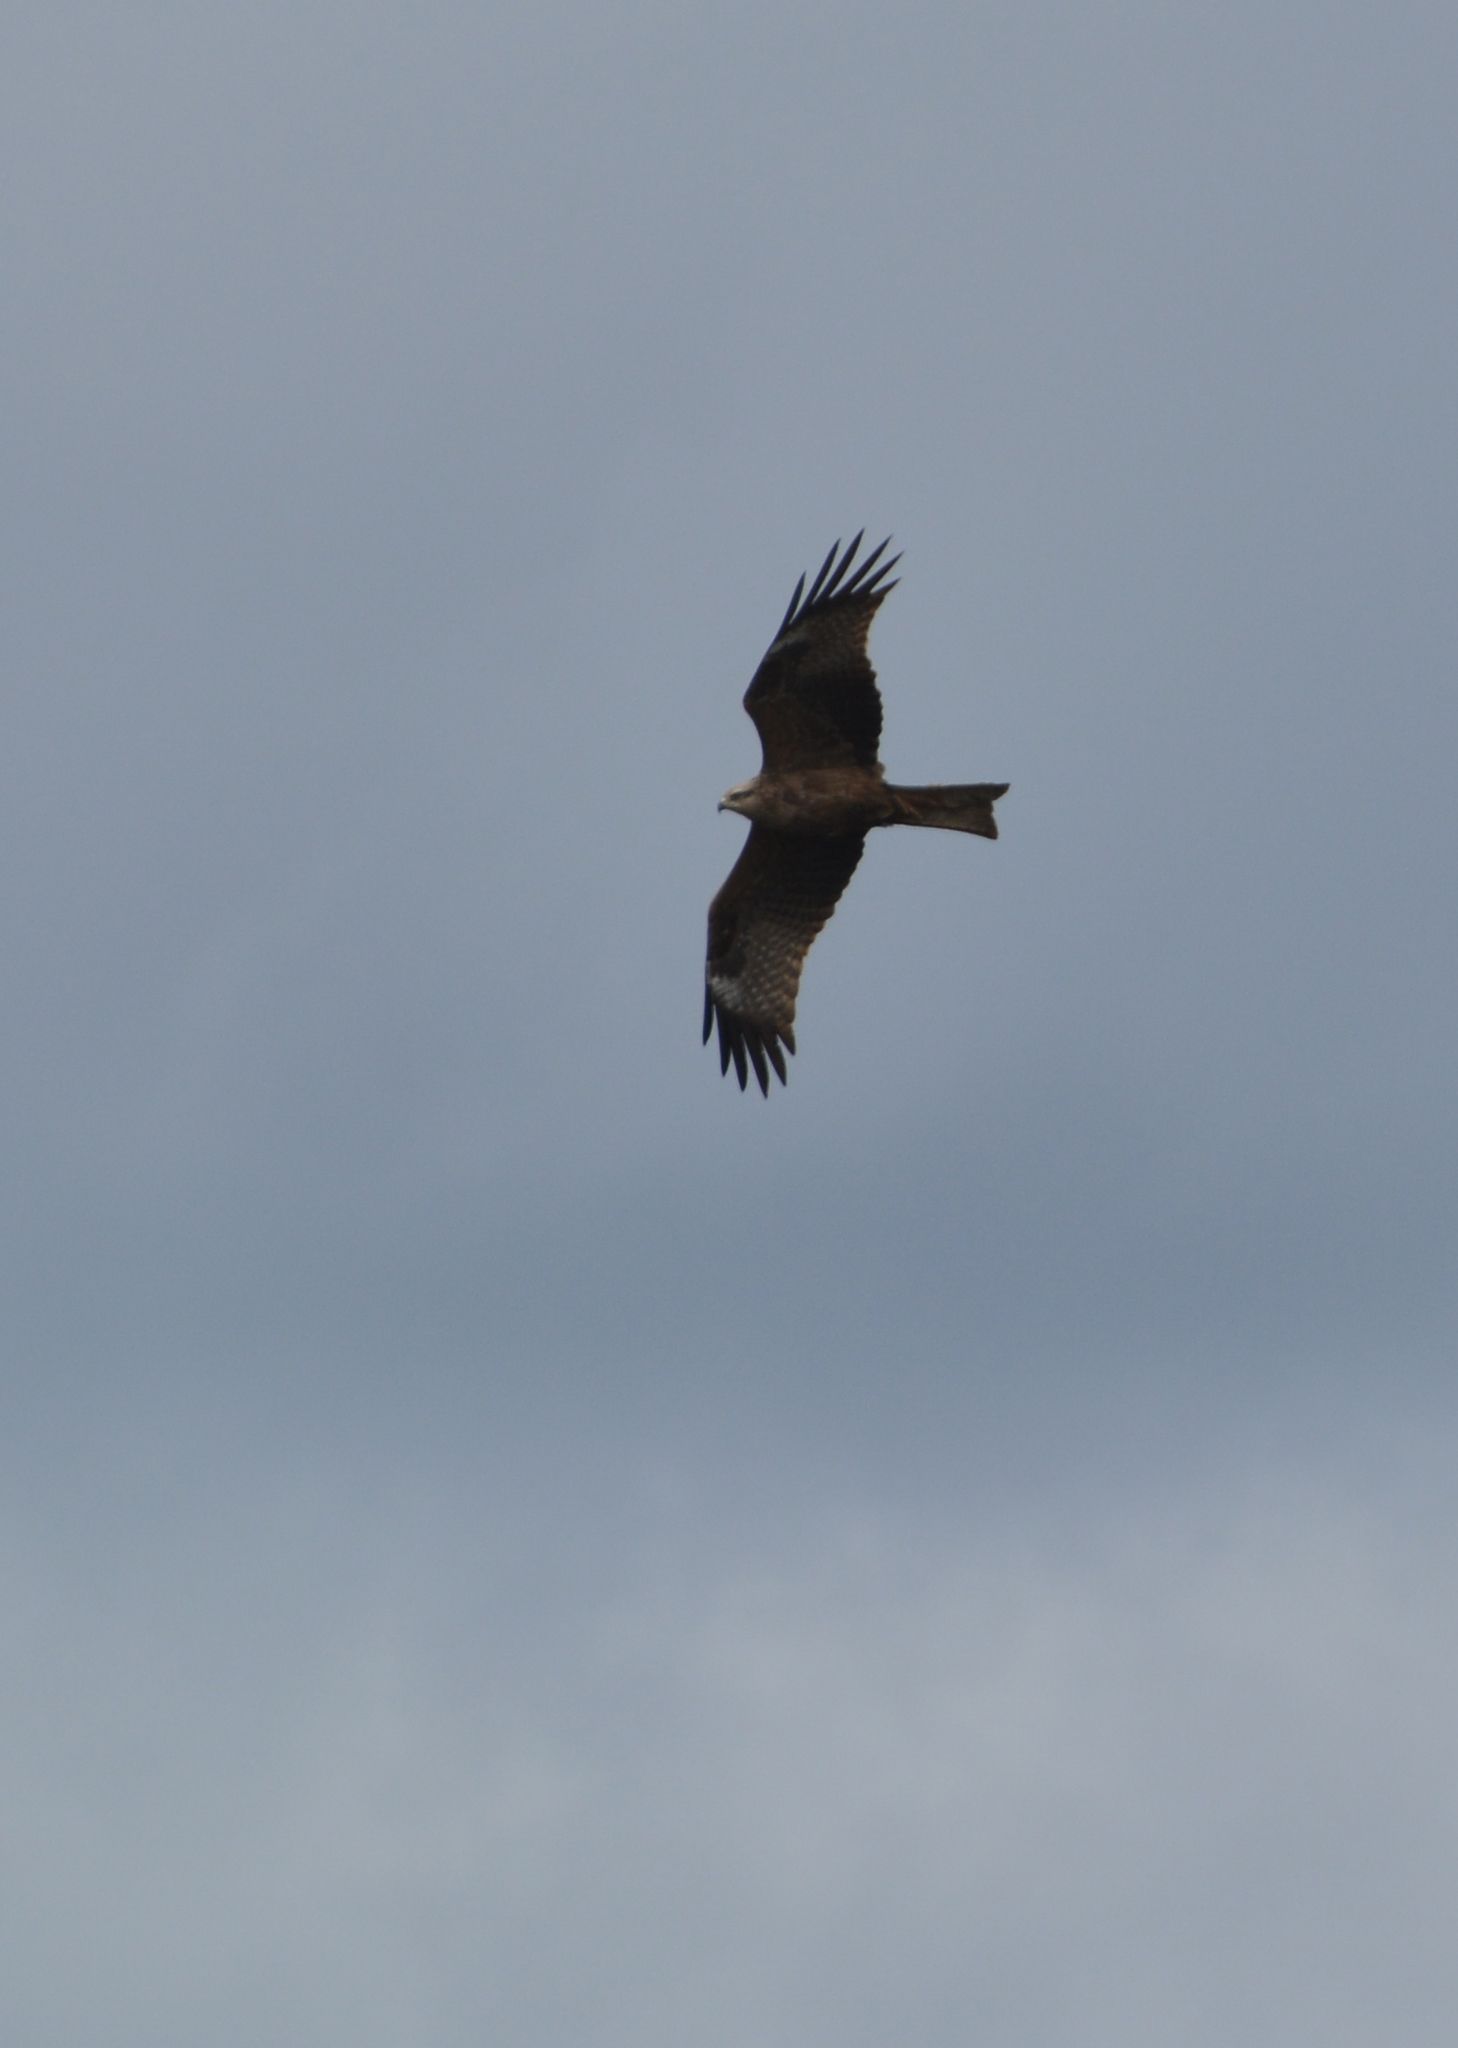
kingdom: Animalia
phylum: Chordata
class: Aves
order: Accipitriformes
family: Accipitridae
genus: Milvus
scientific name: Milvus migrans
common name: Black kite
